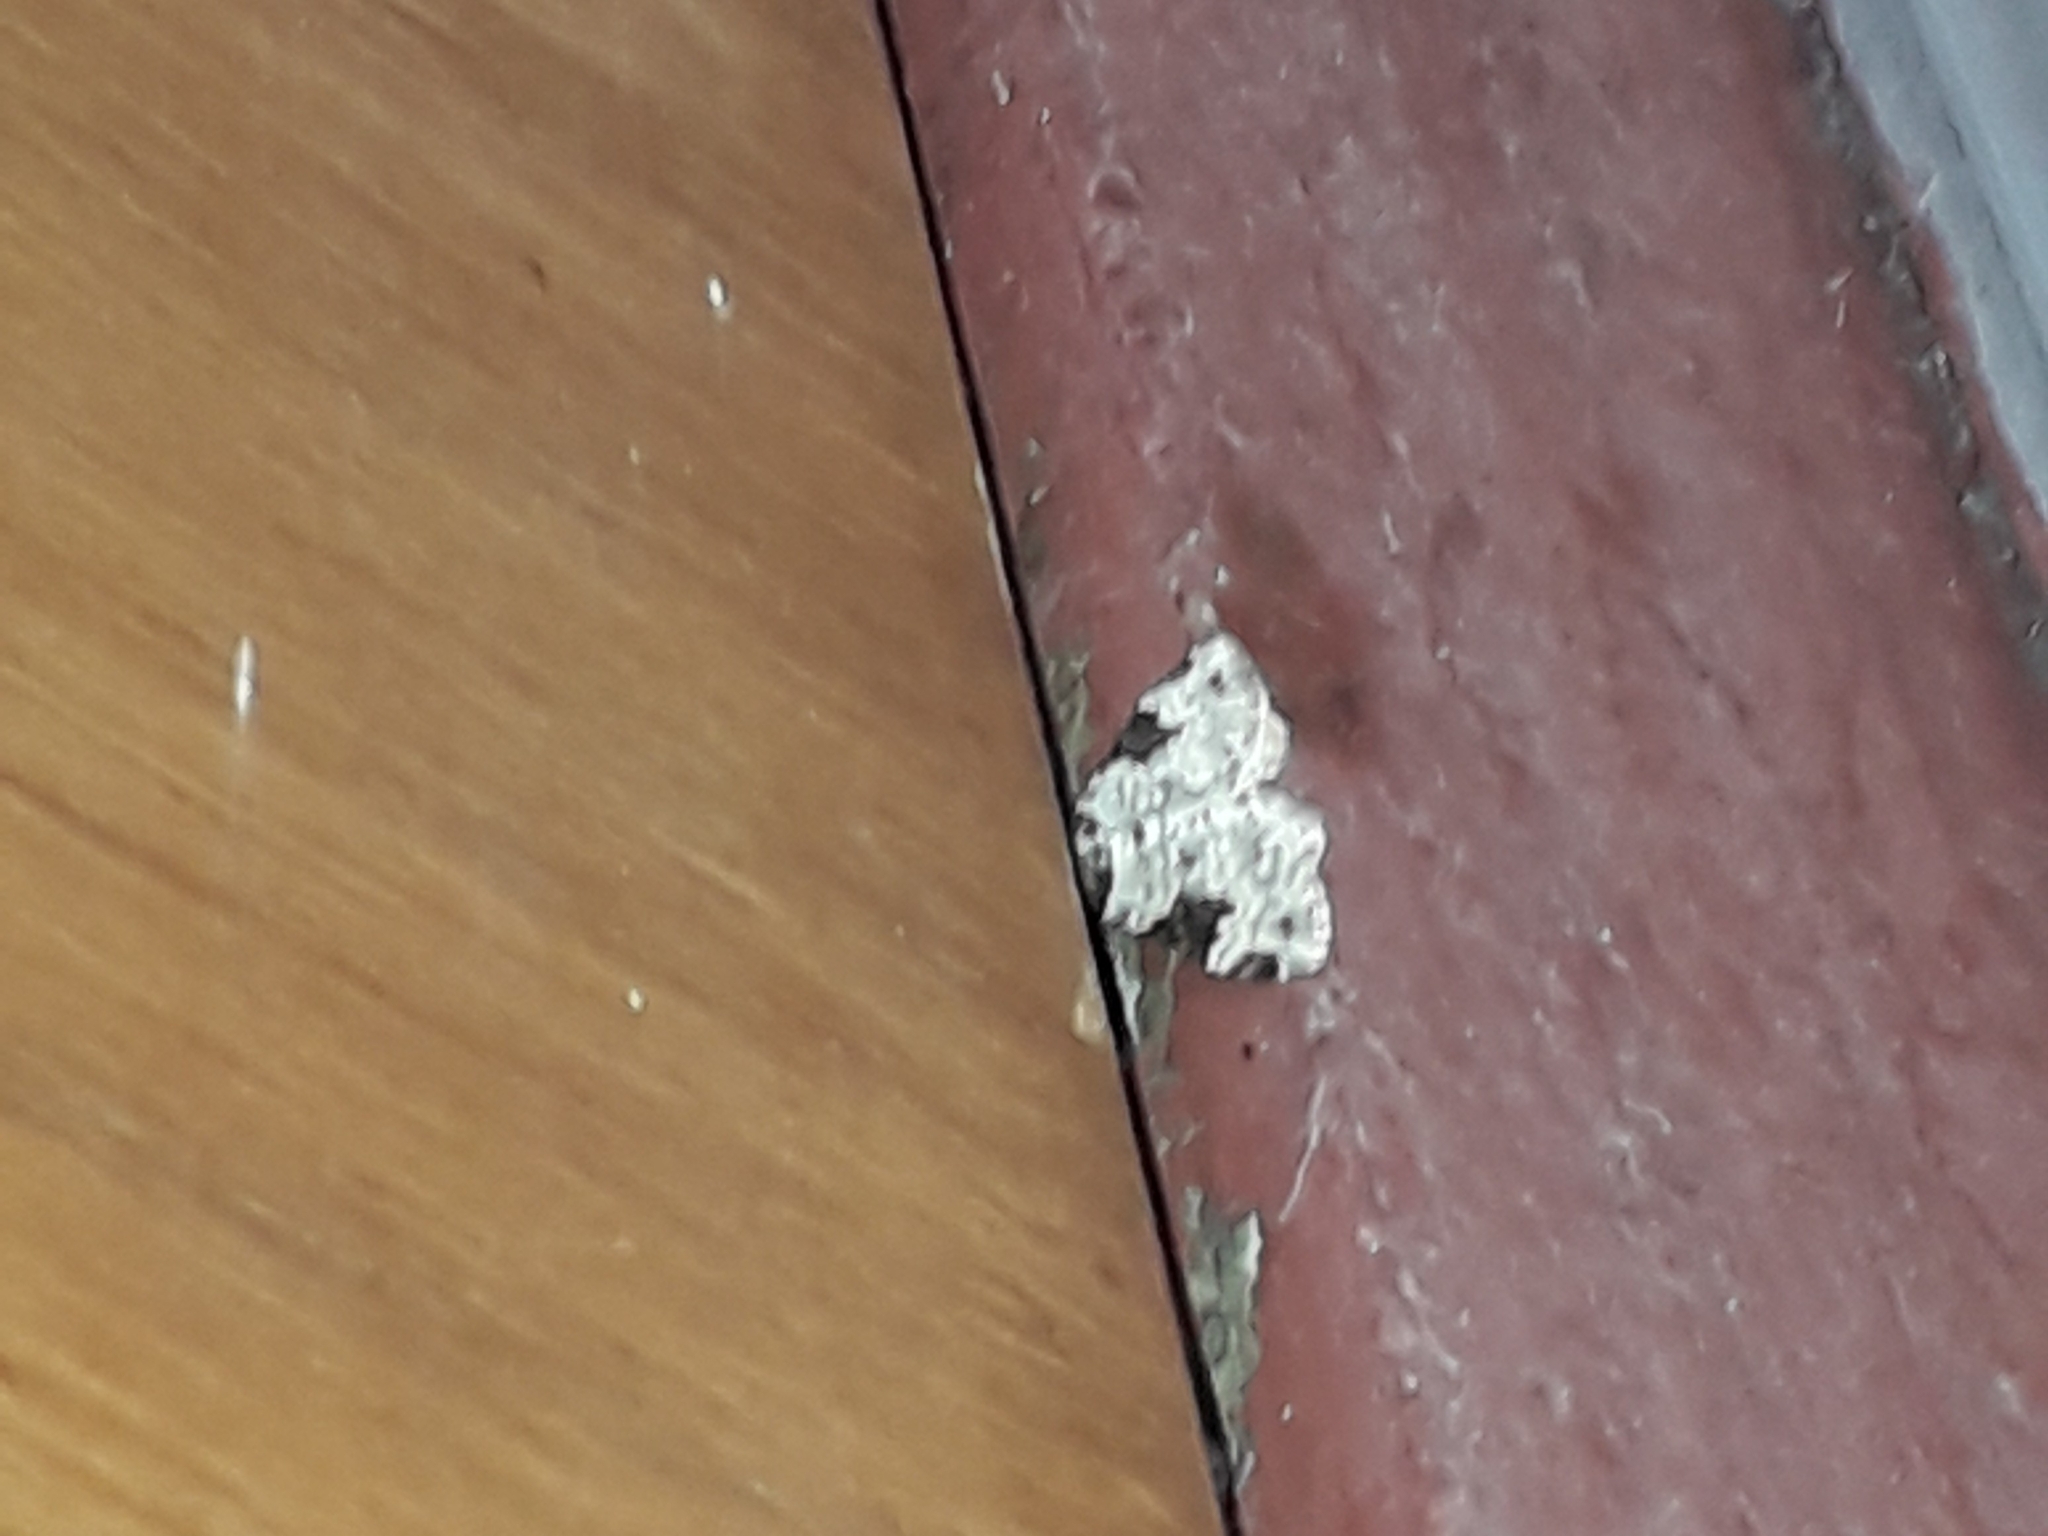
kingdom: Animalia
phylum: Arthropoda
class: Insecta
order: Lepidoptera
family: Geometridae
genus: Xanthorhoe
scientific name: Xanthorhoe fluctuata
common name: Garden carpet
